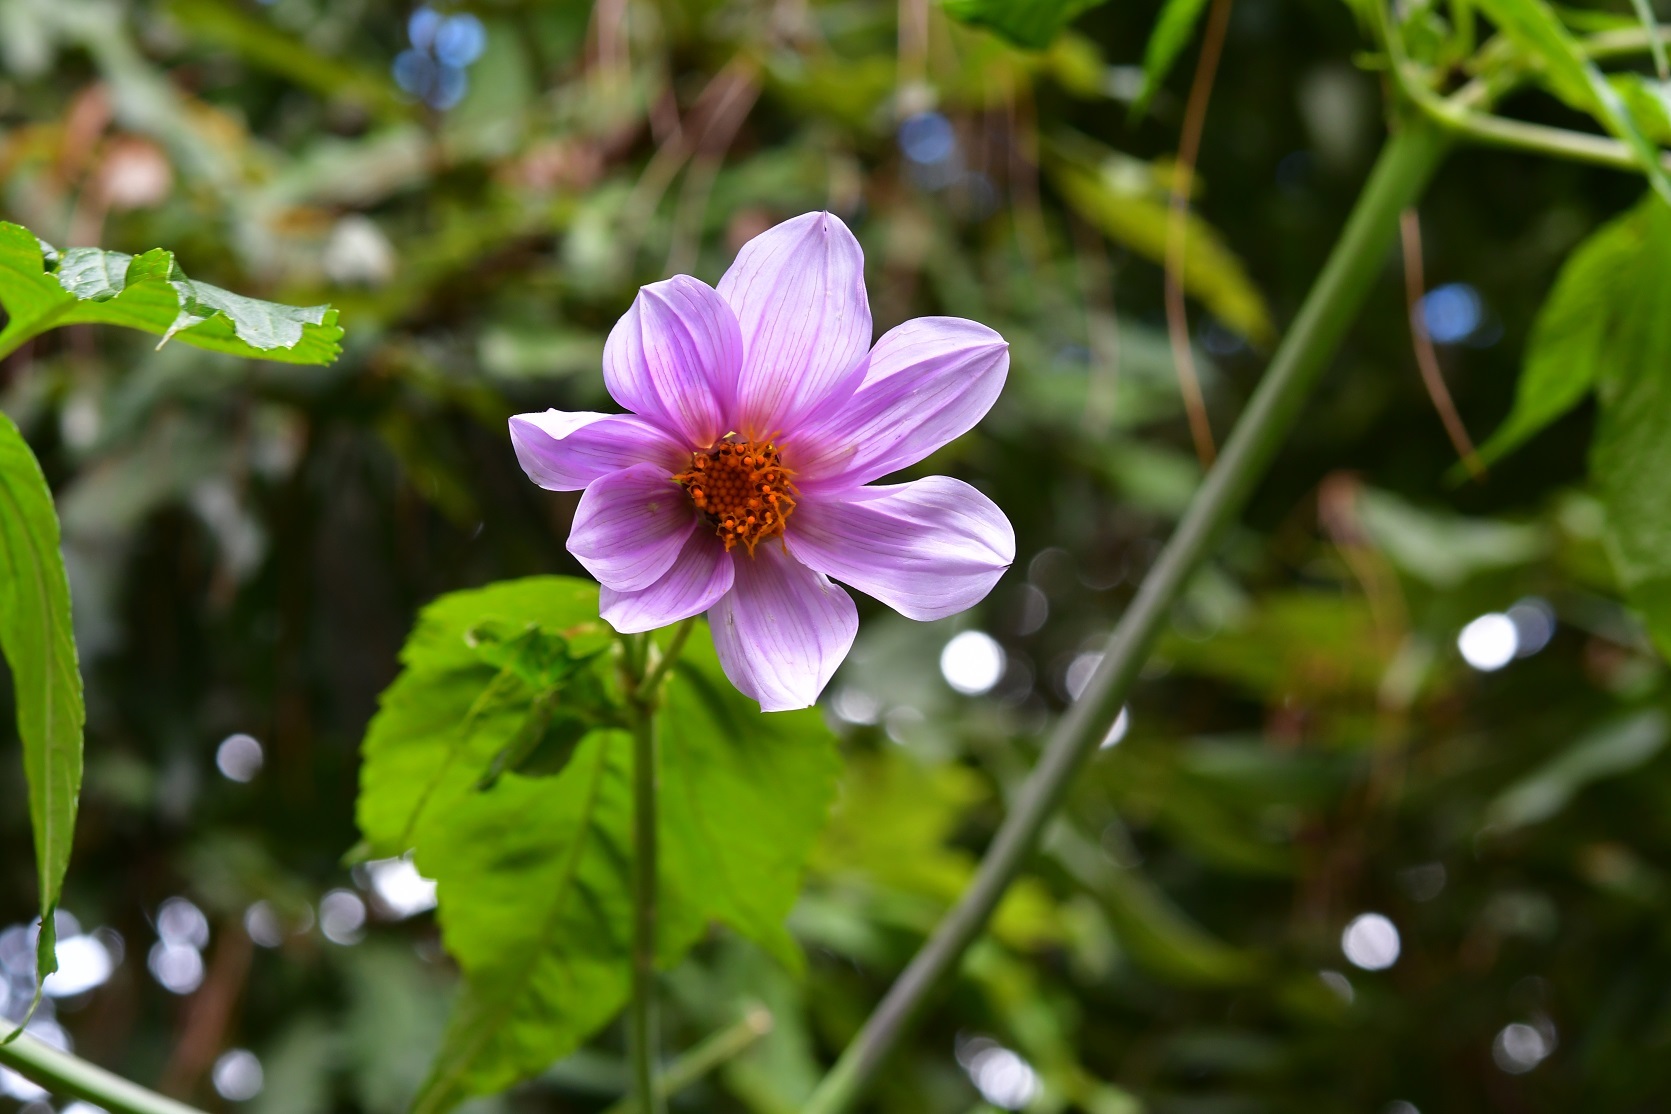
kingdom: Plantae
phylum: Tracheophyta
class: Magnoliopsida
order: Asterales
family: Asteraceae
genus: Dahlia
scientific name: Dahlia imperialis
